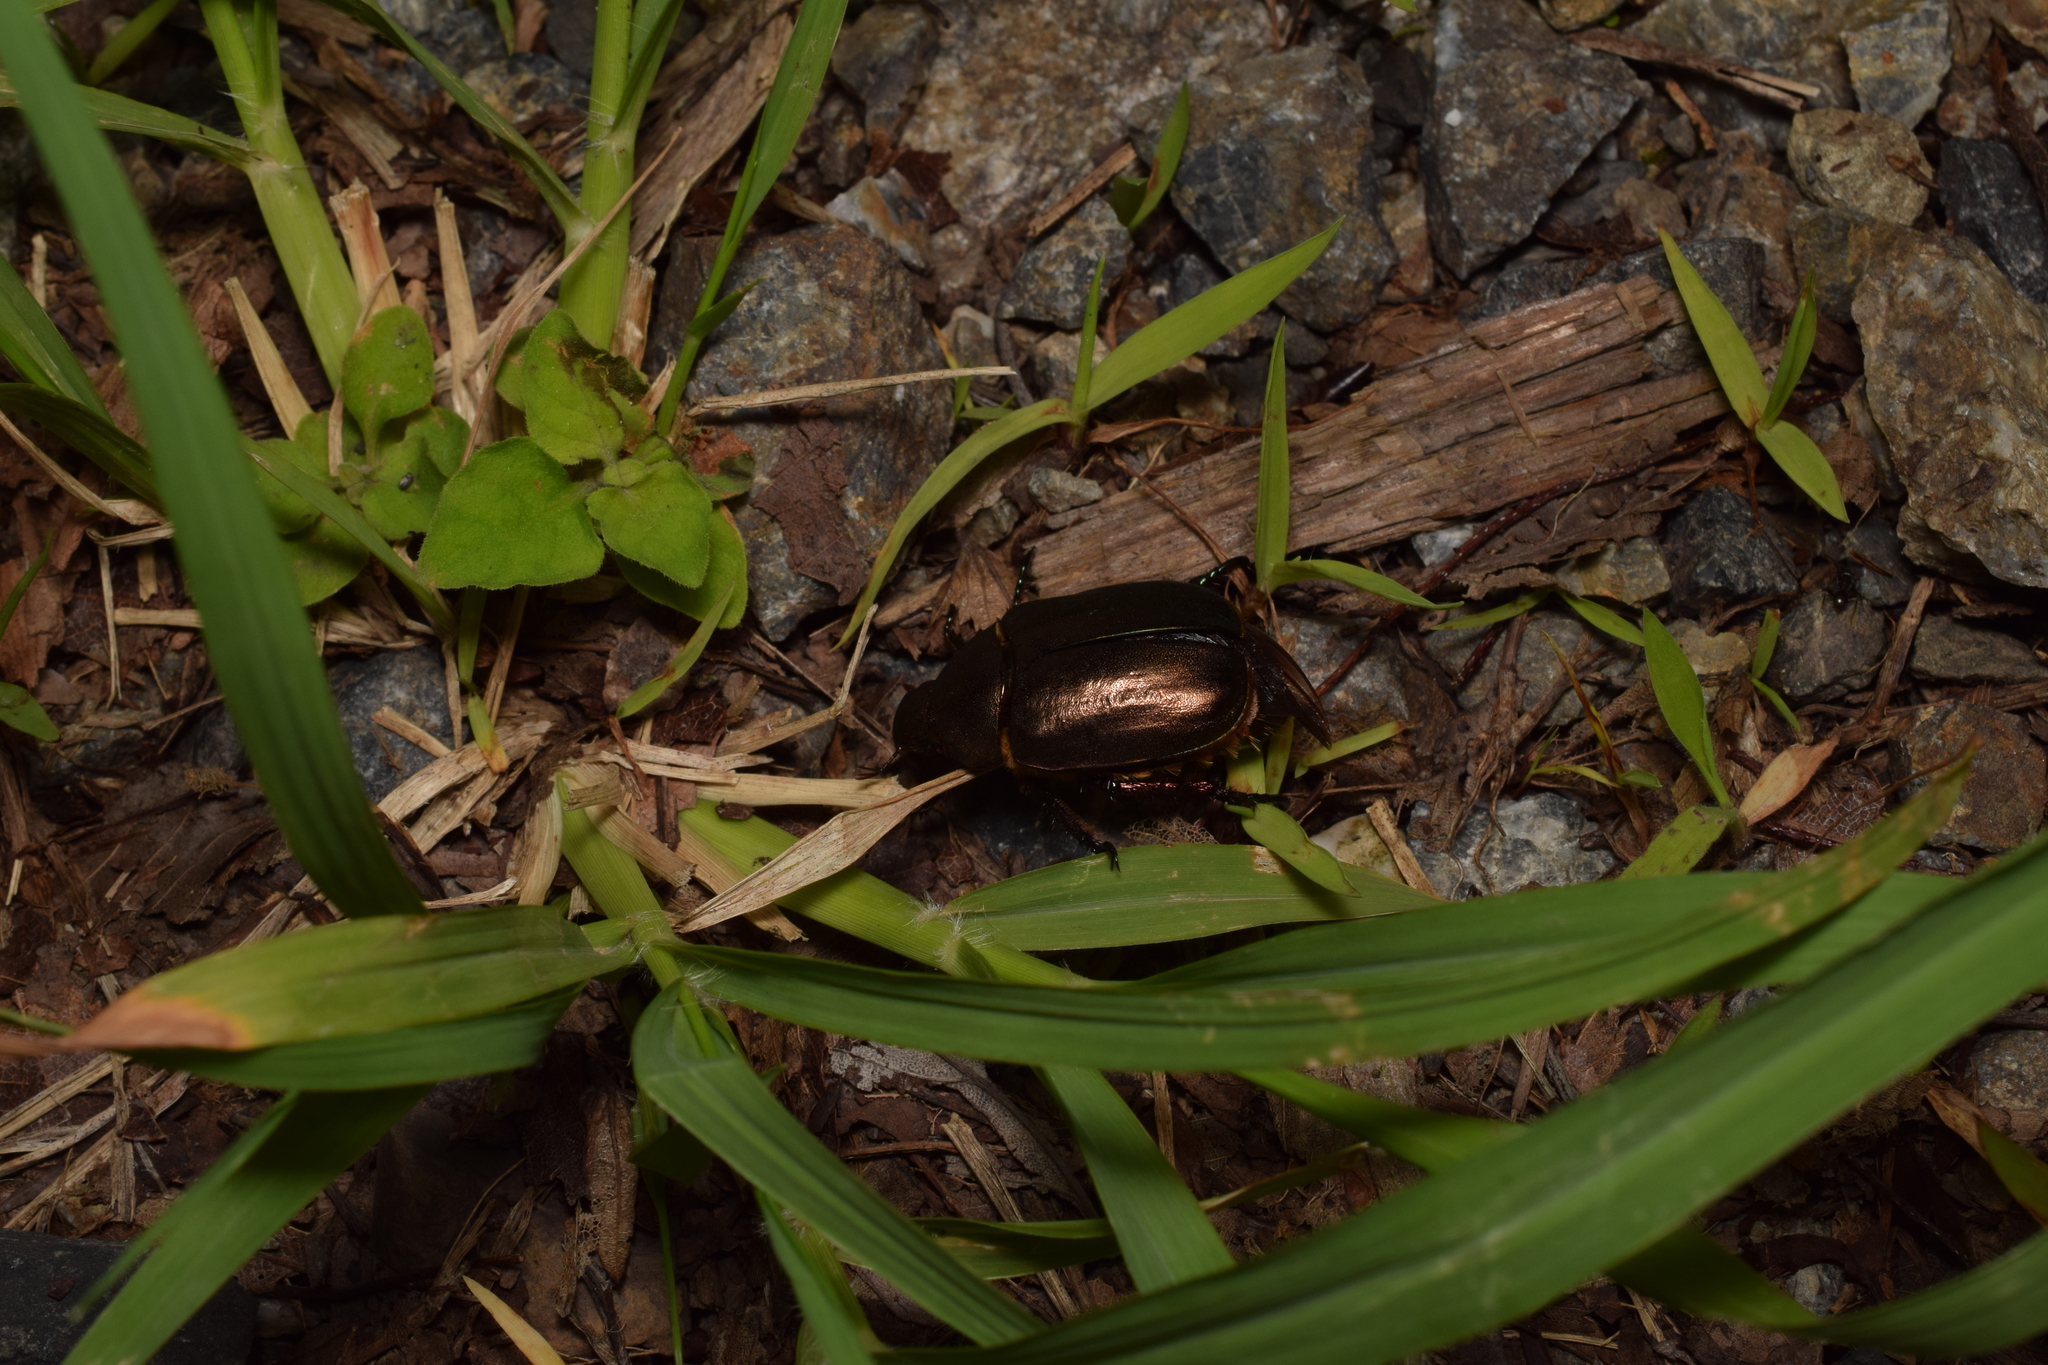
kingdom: Animalia
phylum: Arthropoda
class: Insecta
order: Coleoptera
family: Scarabaeidae
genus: Anomala
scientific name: Anomala cuprea
